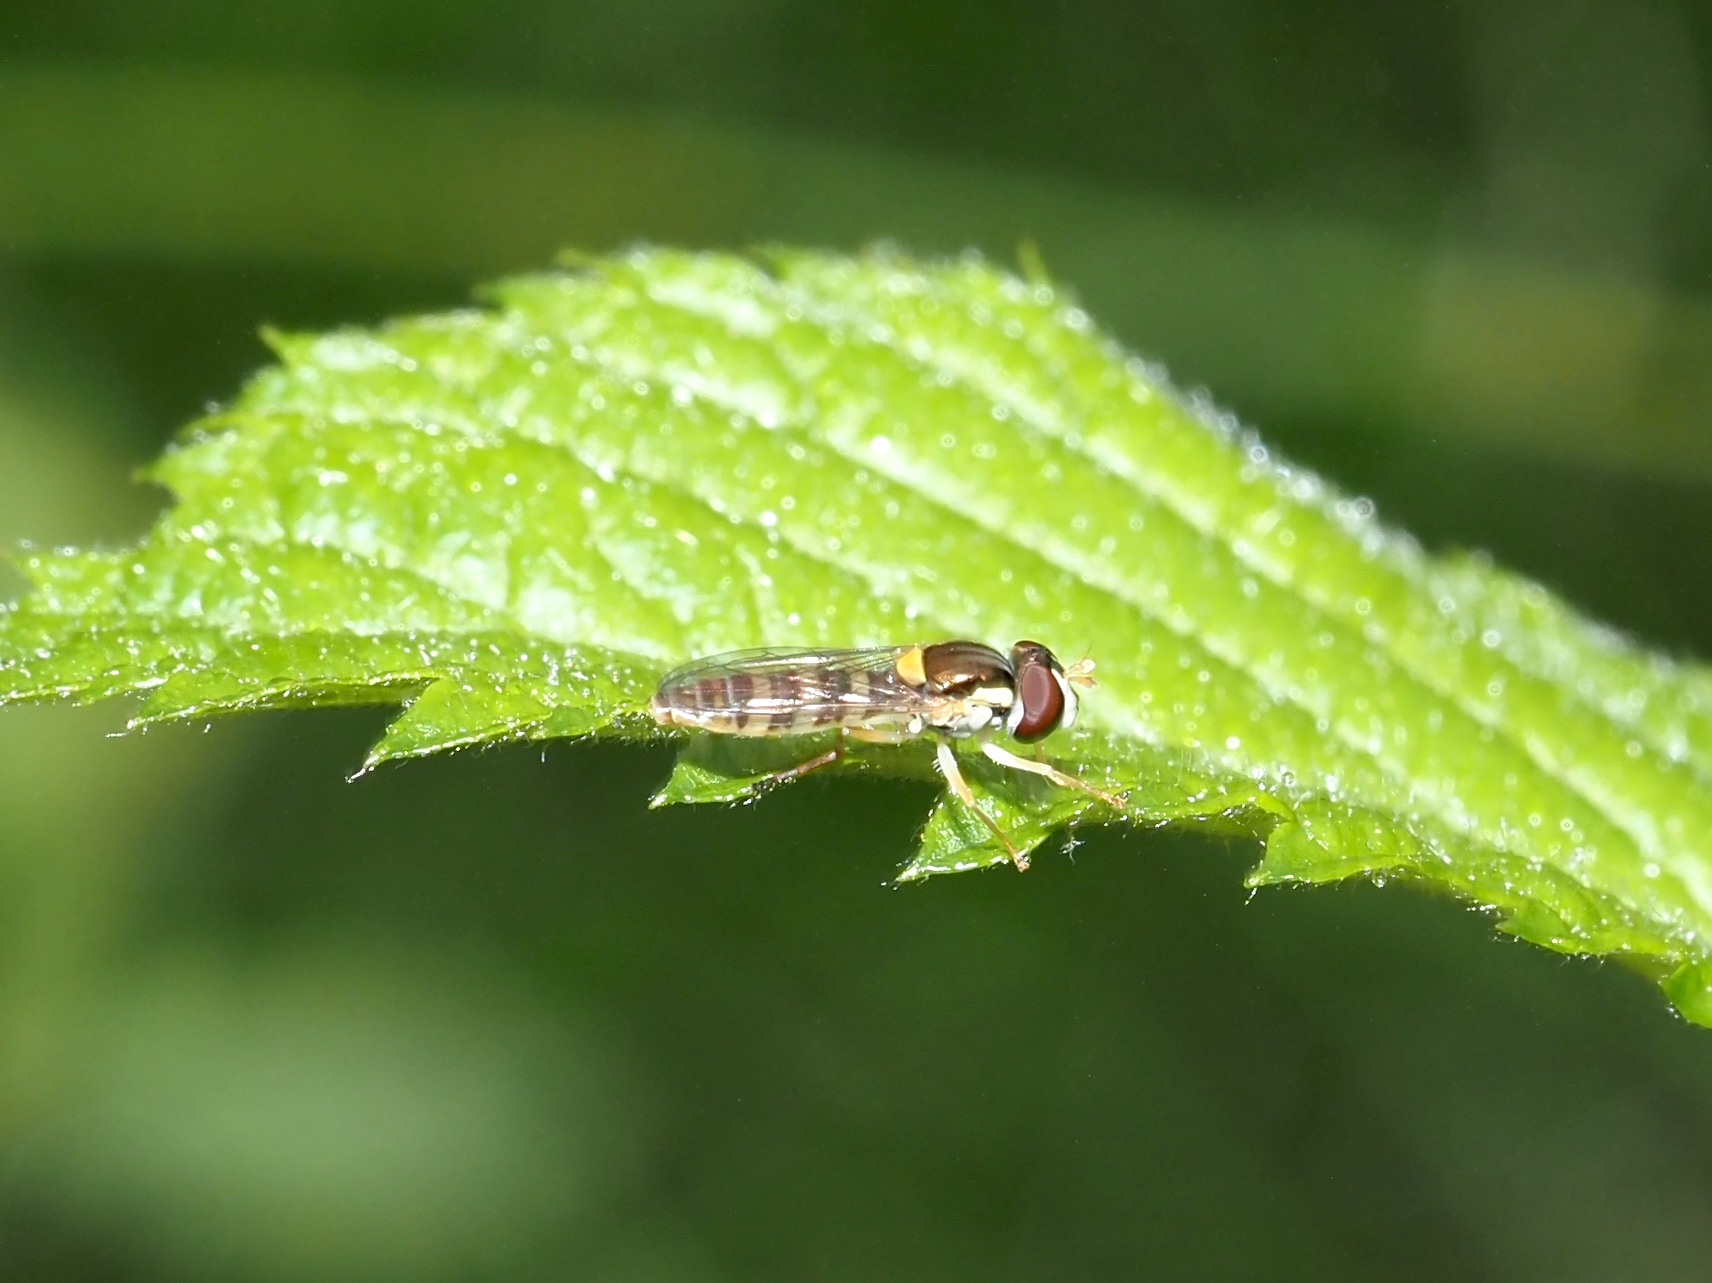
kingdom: Animalia
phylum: Arthropoda
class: Insecta
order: Diptera
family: Syrphidae
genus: Sphaerophoria
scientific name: Sphaerophoria contigua
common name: Tufted globetail
